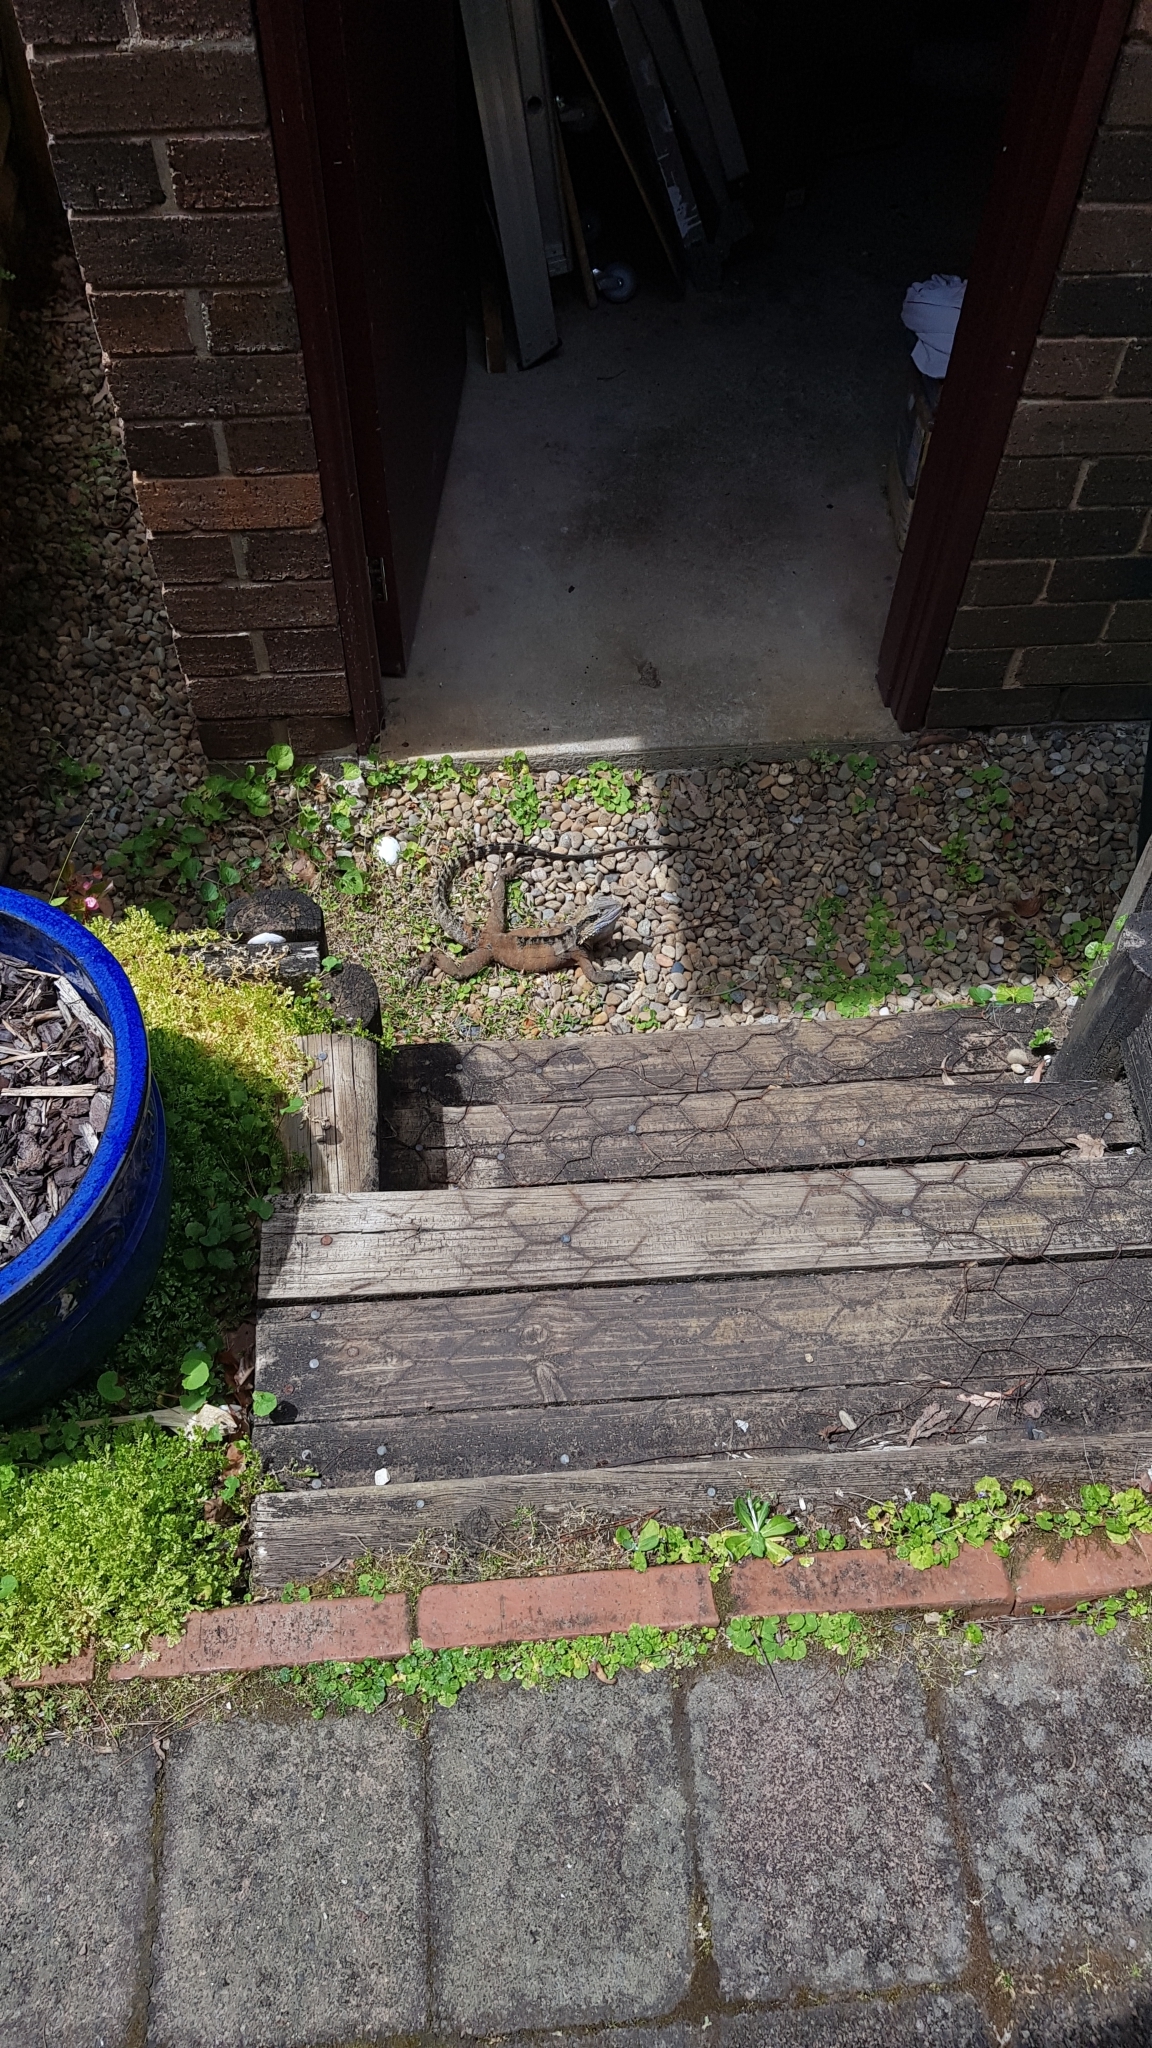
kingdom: Animalia
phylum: Chordata
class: Squamata
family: Agamidae
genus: Intellagama
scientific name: Intellagama lesueurii
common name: Eastern water dragon
